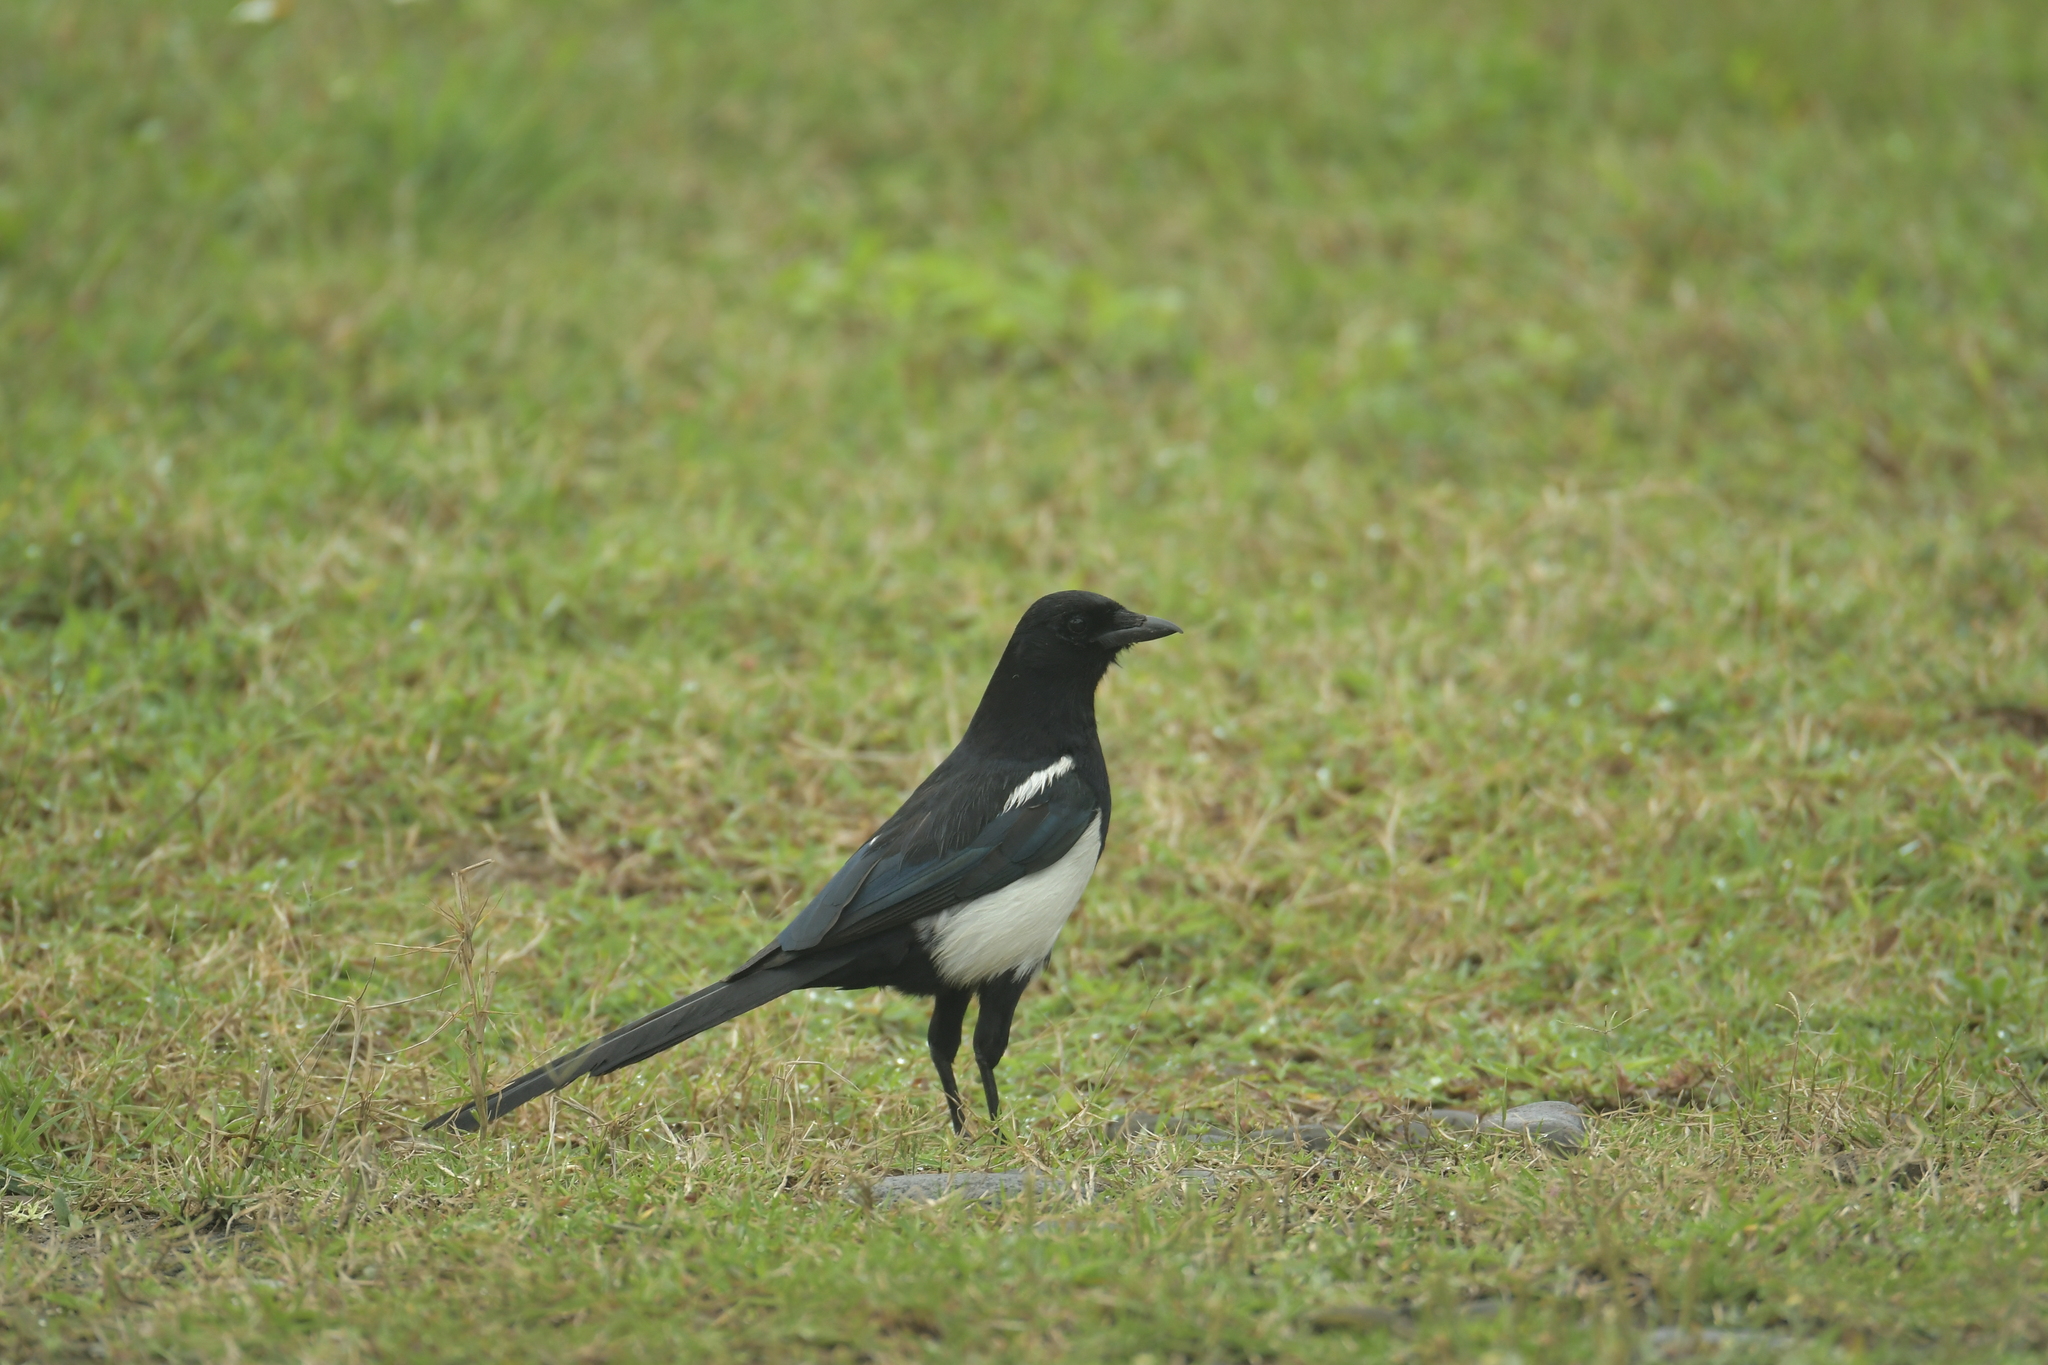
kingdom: Animalia
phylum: Chordata
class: Aves
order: Passeriformes
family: Corvidae
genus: Pica
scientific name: Pica serica
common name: Oriental magpie
